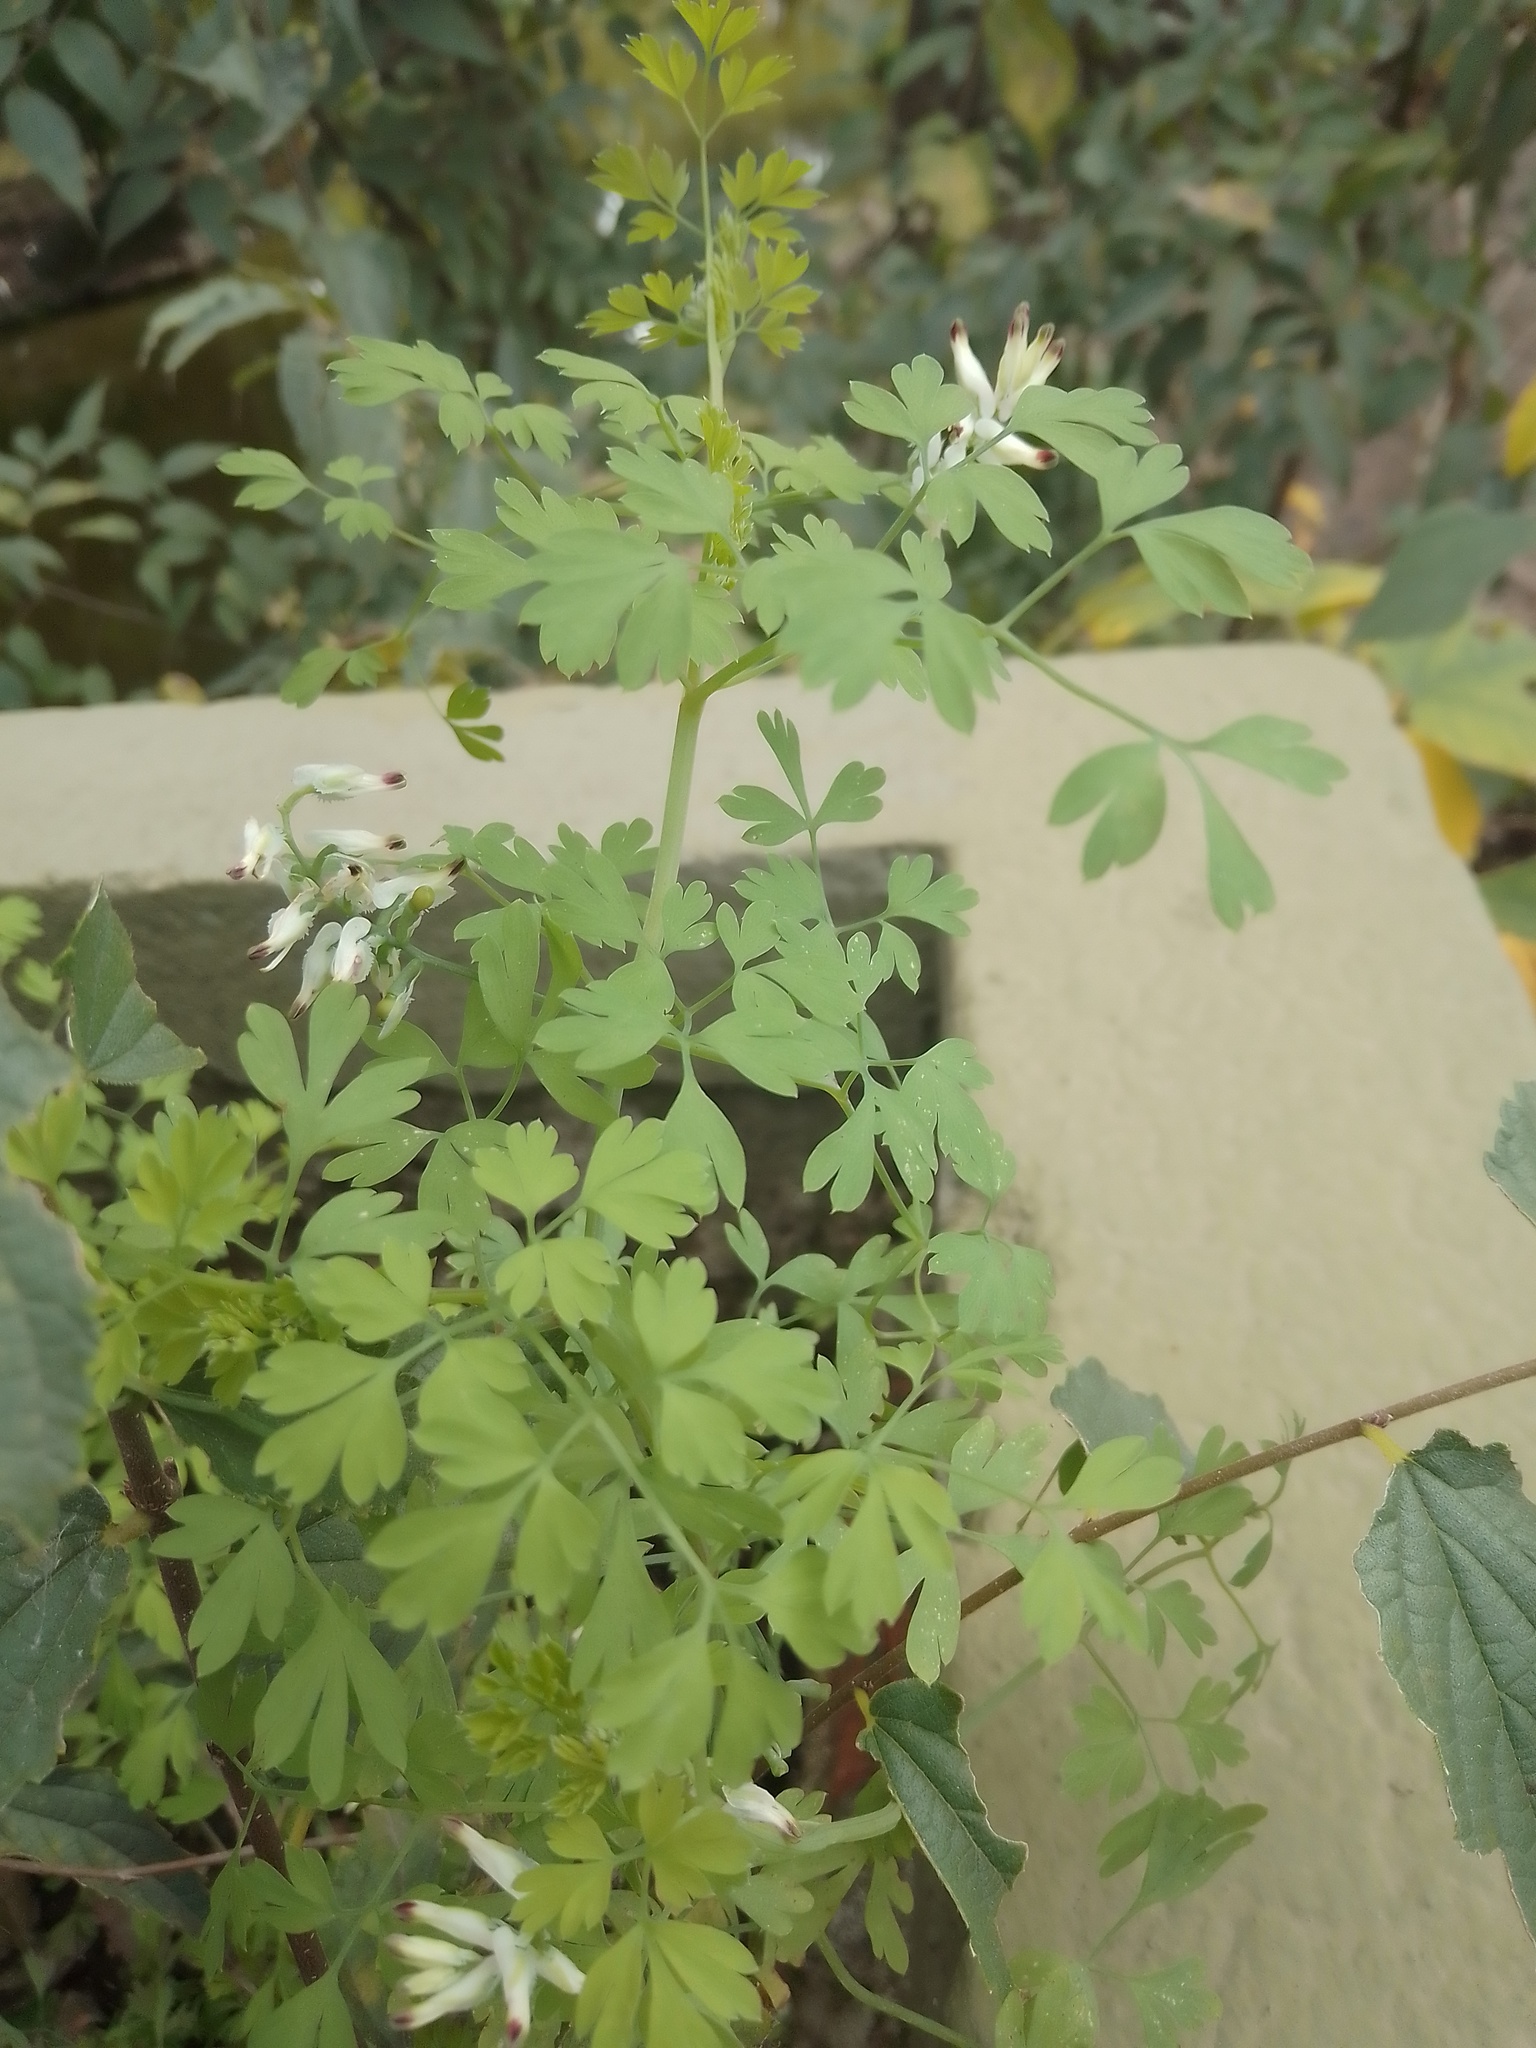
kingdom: Plantae
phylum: Tracheophyta
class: Magnoliopsida
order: Ranunculales
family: Papaveraceae
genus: Fumaria
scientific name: Fumaria capreolata
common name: White ramping-fumitory
